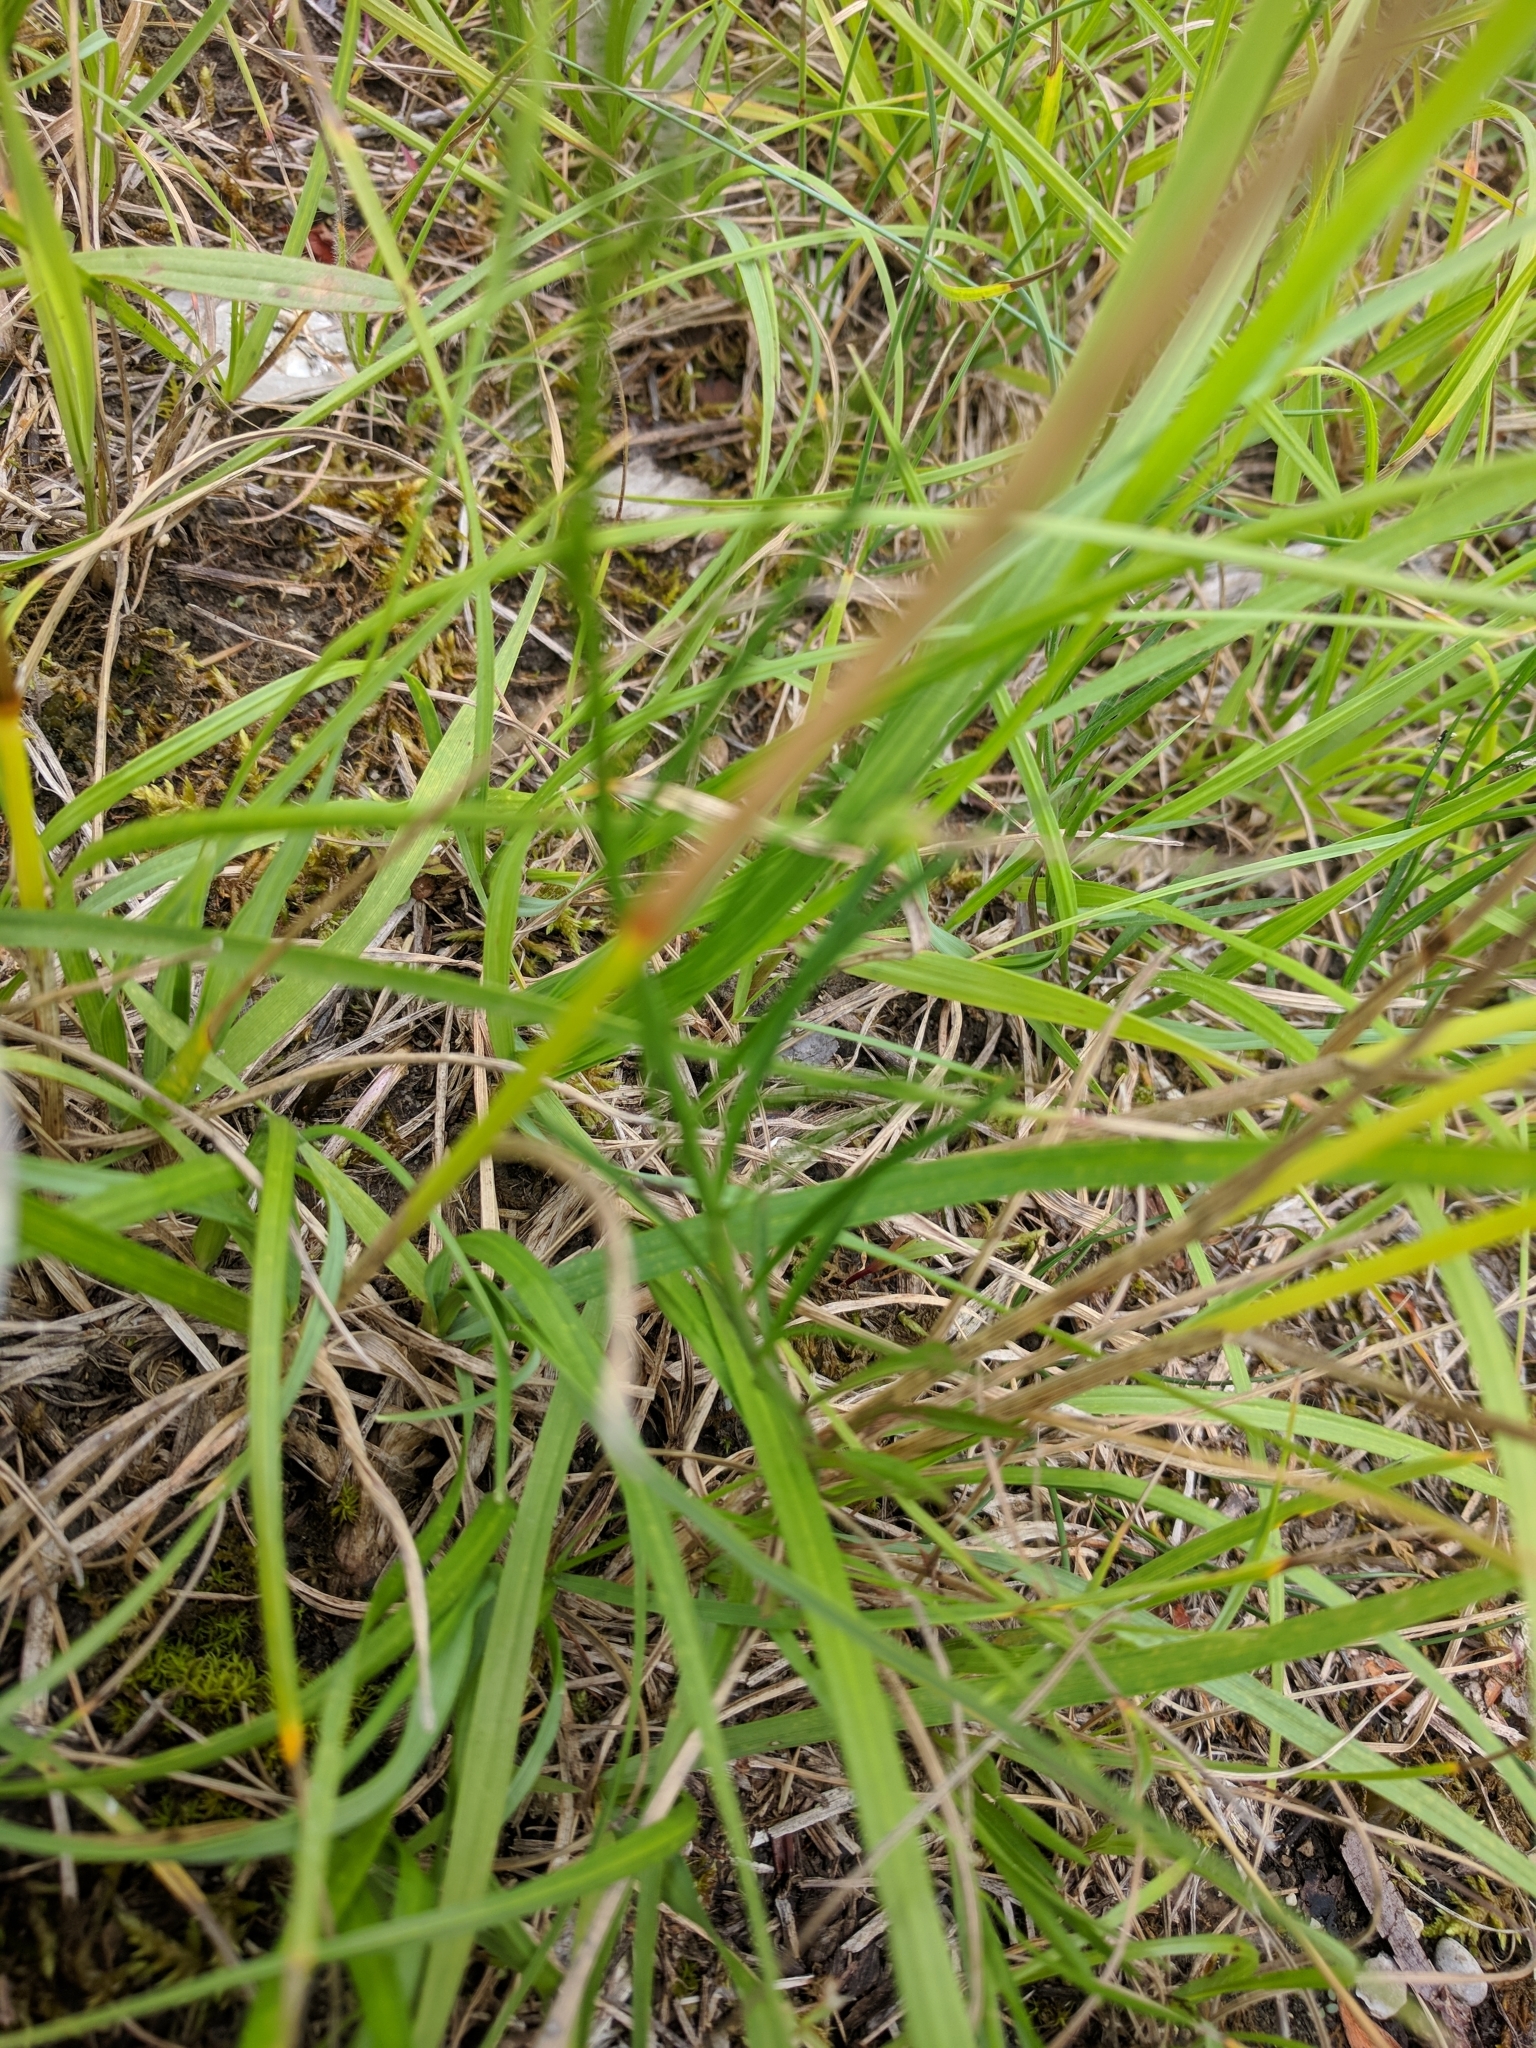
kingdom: Plantae
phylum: Tracheophyta
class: Magnoliopsida
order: Asterales
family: Campanulaceae
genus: Campanula
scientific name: Campanula rotundifolia
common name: Harebell
